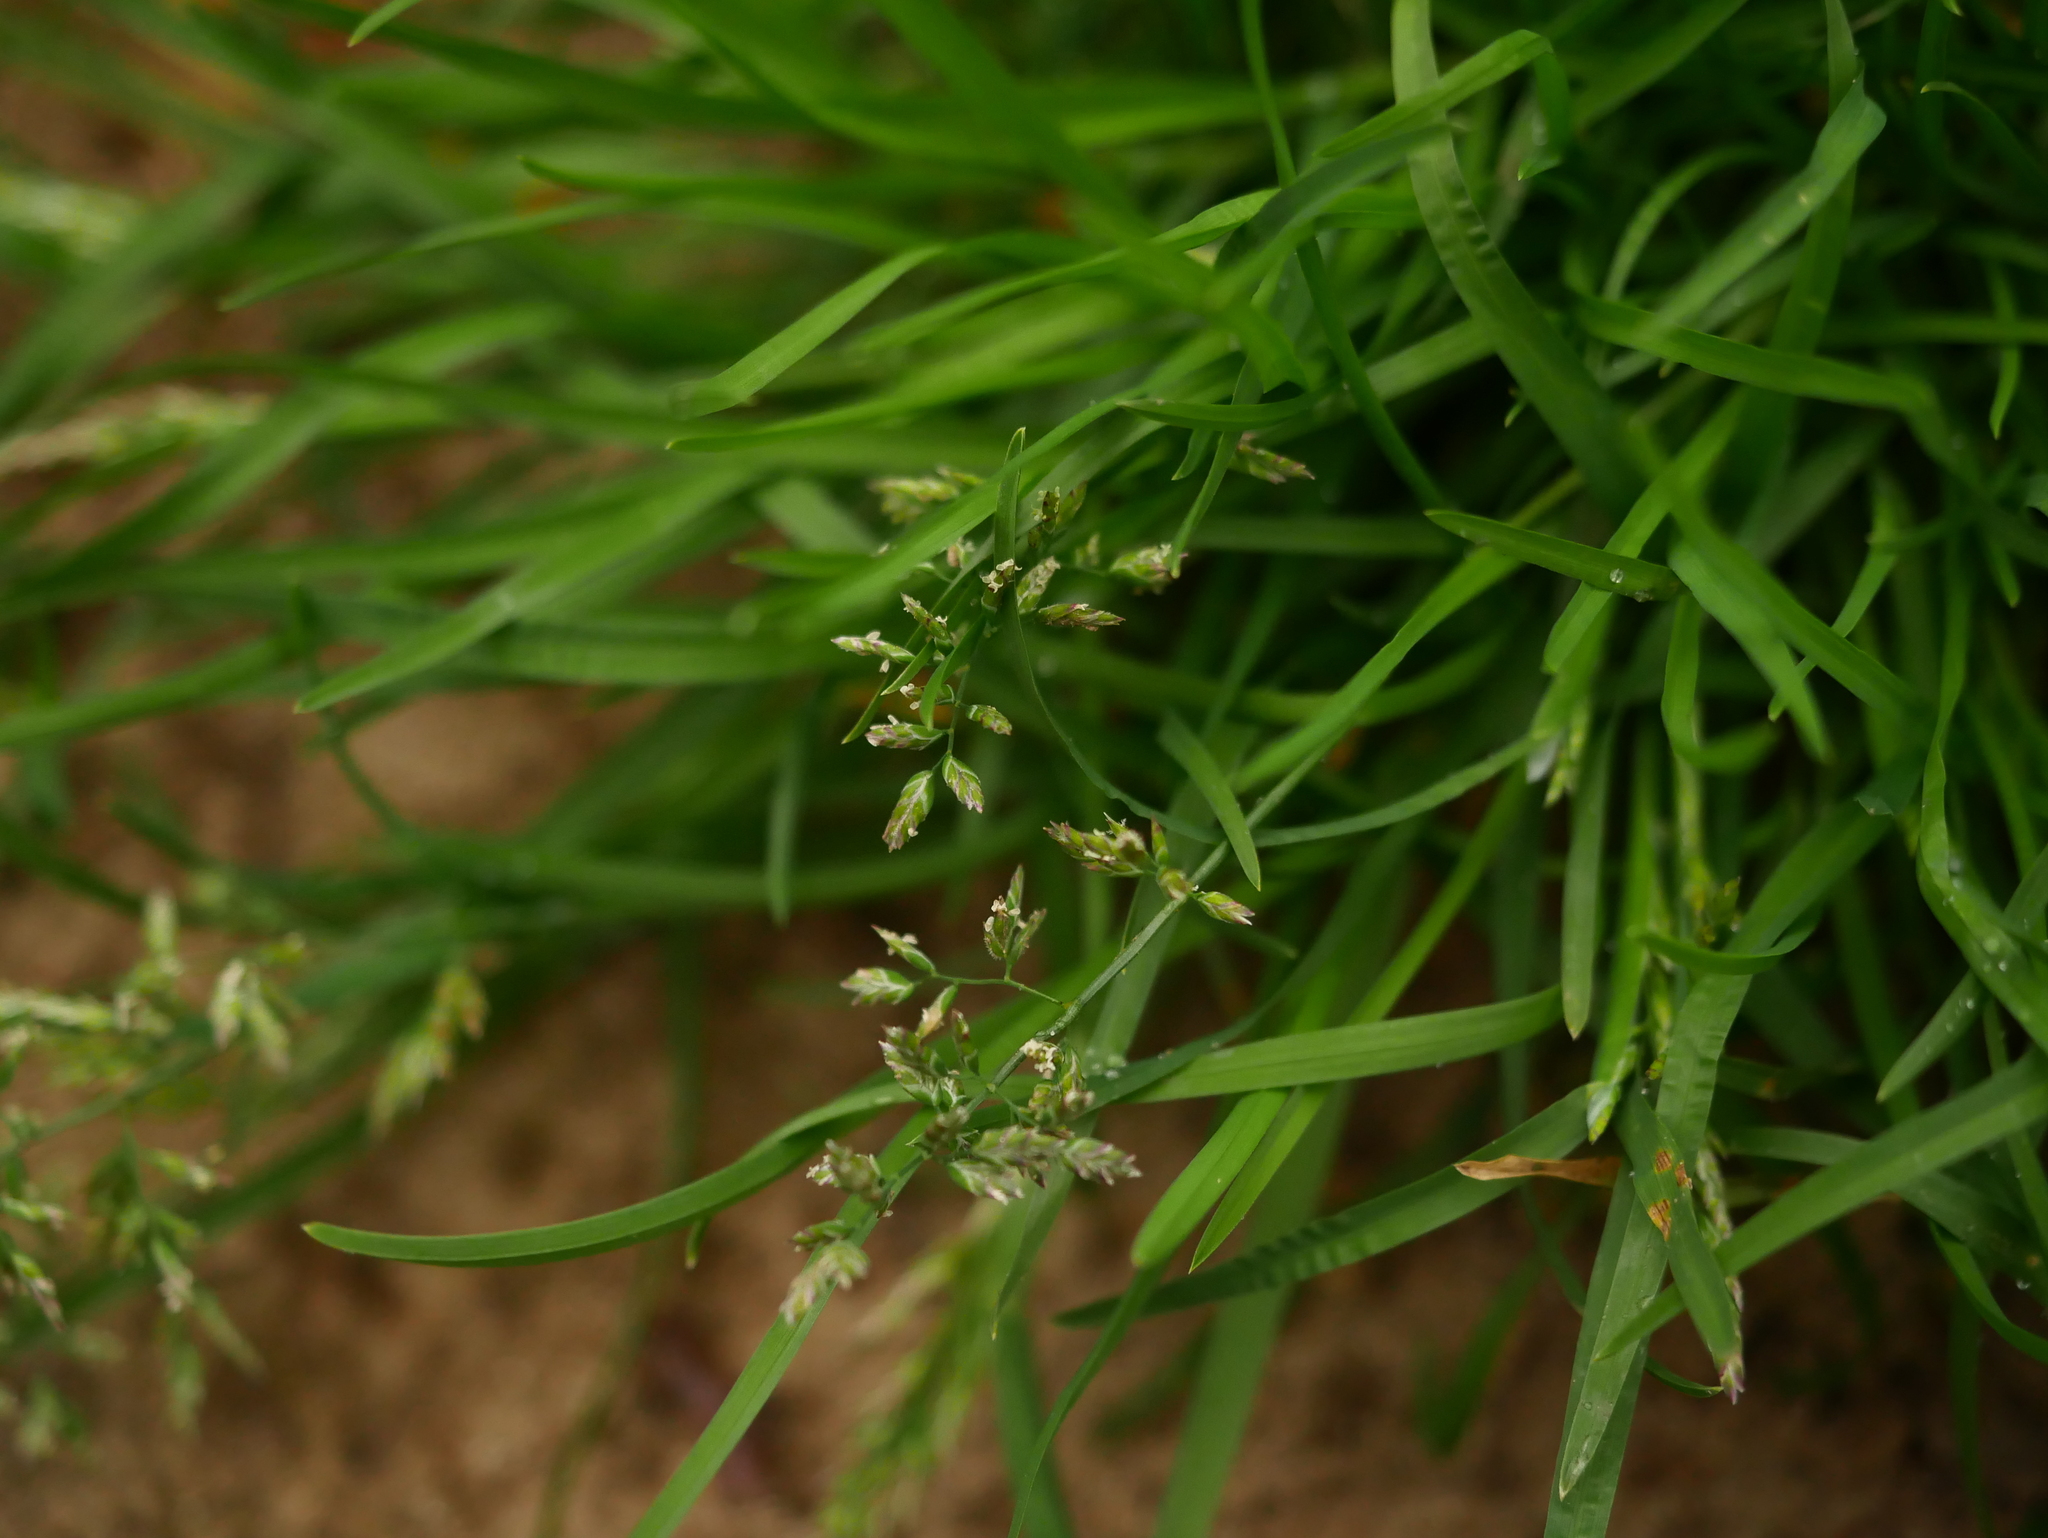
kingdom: Plantae
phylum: Tracheophyta
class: Liliopsida
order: Poales
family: Poaceae
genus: Poa
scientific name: Poa annua
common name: Annual bluegrass
